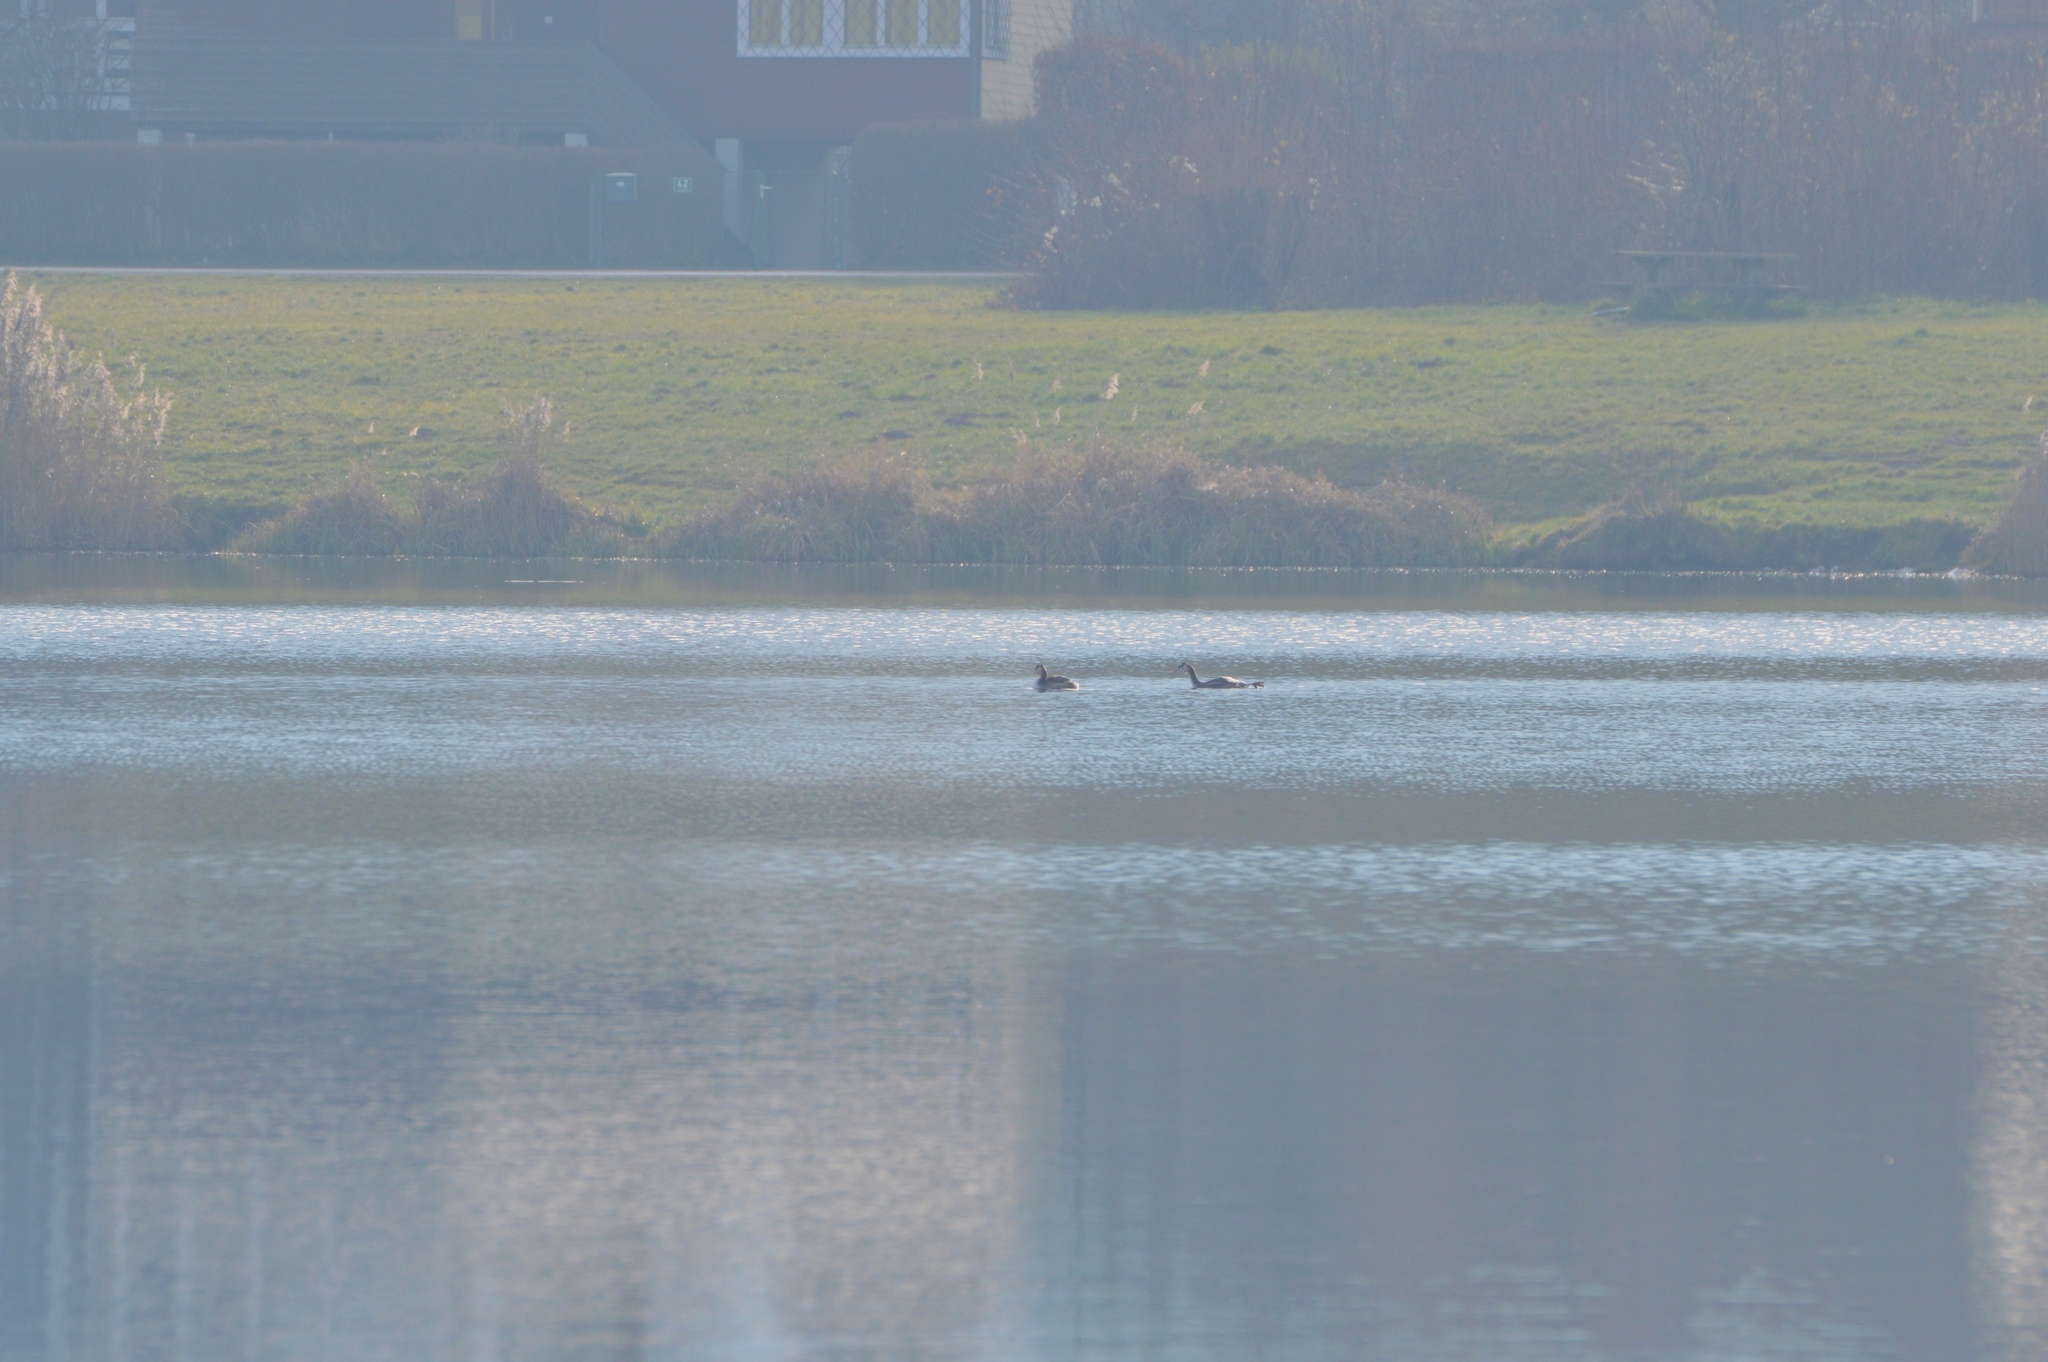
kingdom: Animalia
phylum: Chordata
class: Aves
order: Podicipediformes
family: Podicipedidae
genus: Podiceps
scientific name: Podiceps cristatus
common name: Great crested grebe
